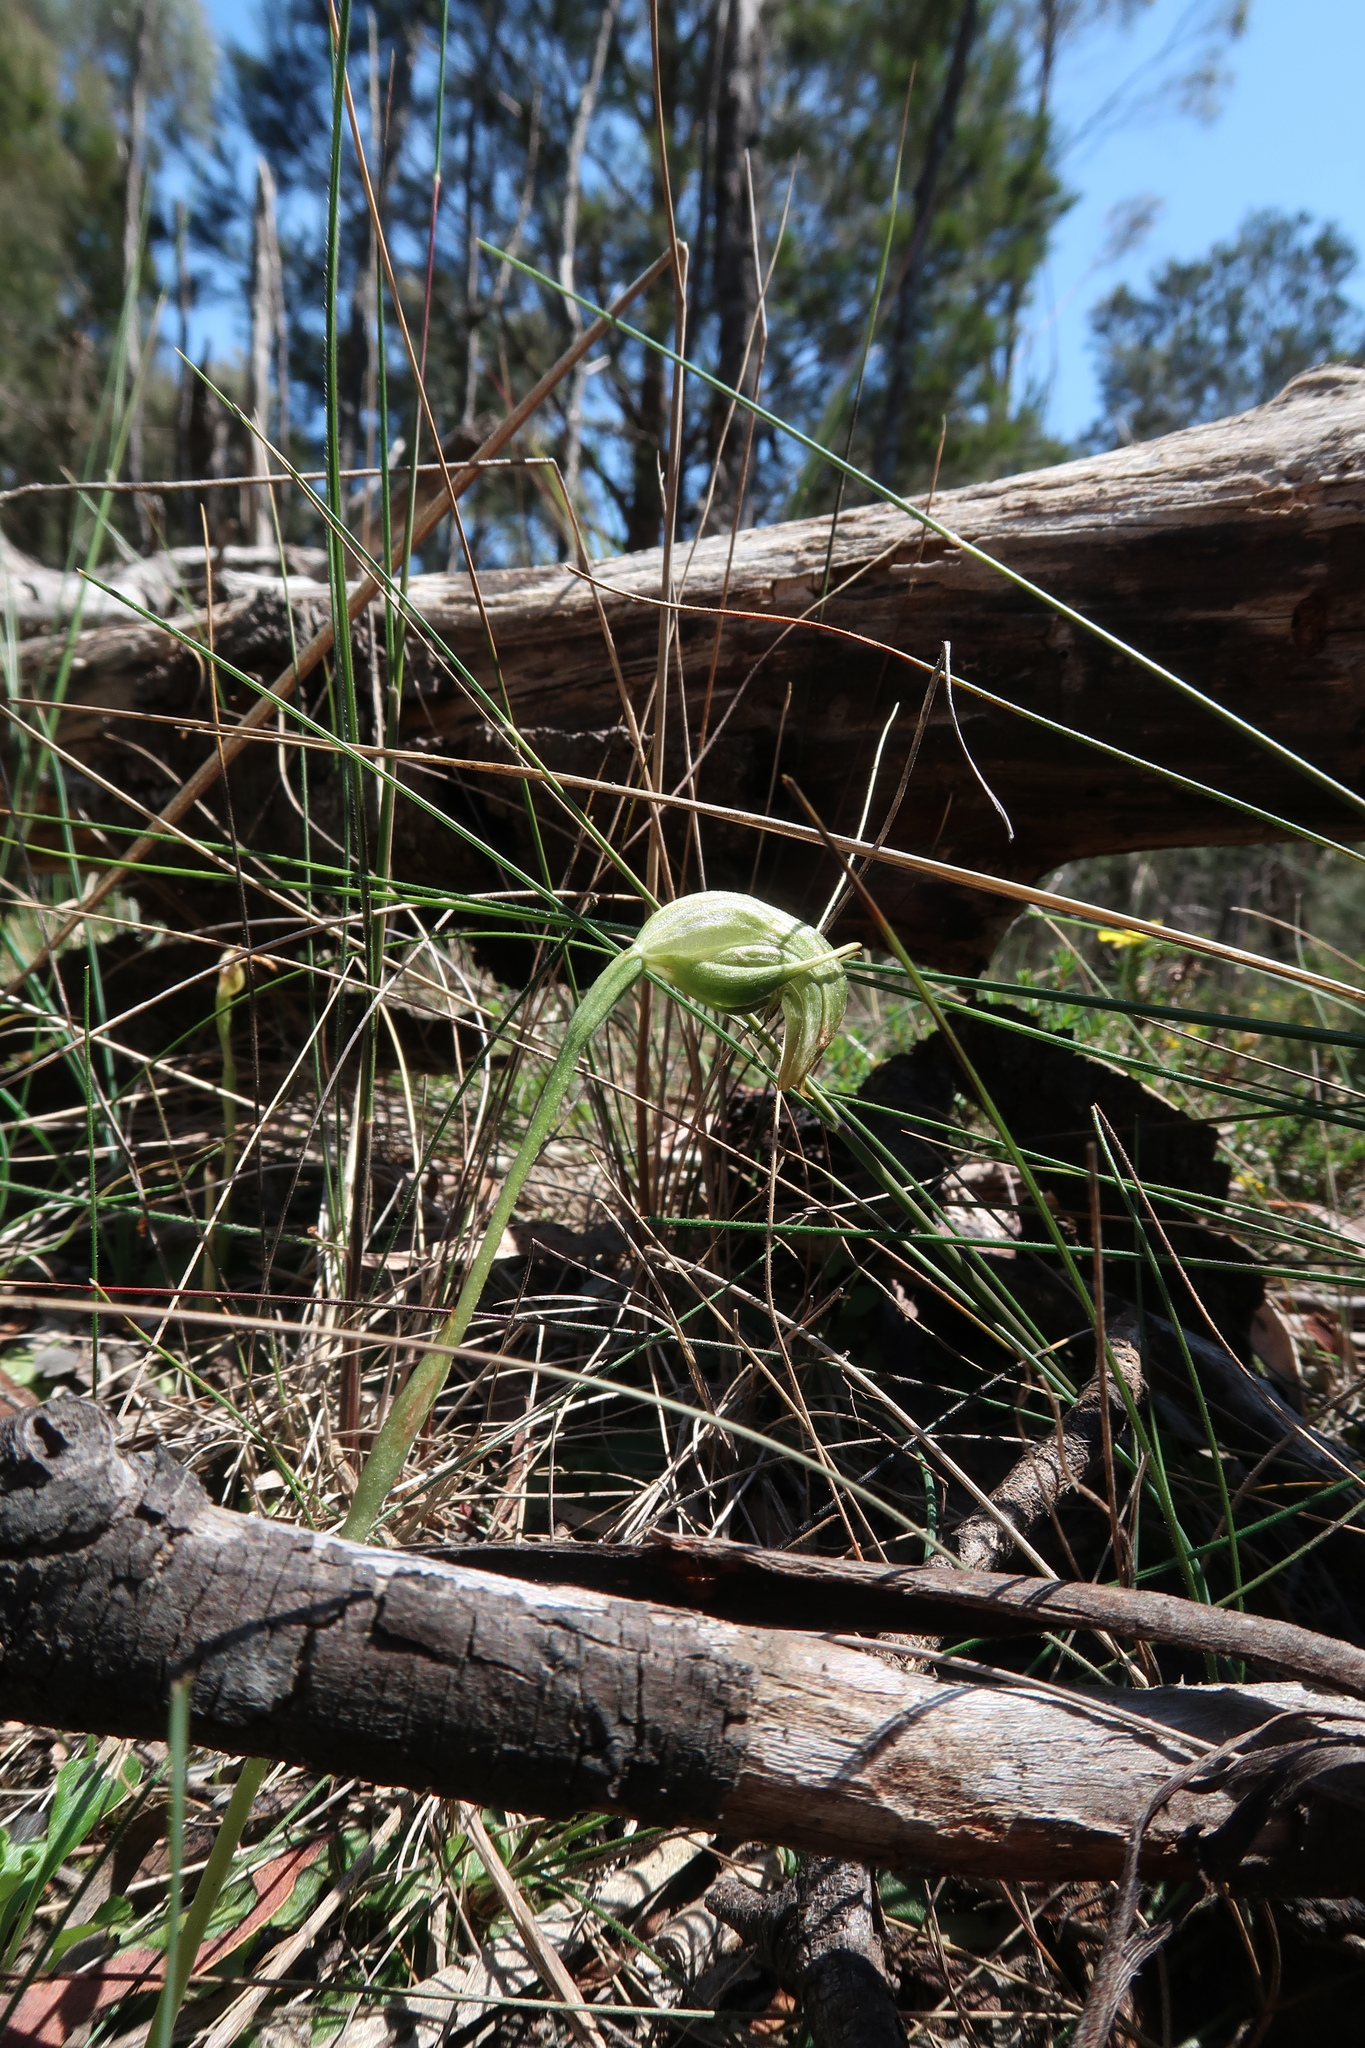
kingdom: Plantae
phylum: Tracheophyta
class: Liliopsida
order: Asparagales
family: Orchidaceae
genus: Pterostylis
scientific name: Pterostylis nutans
